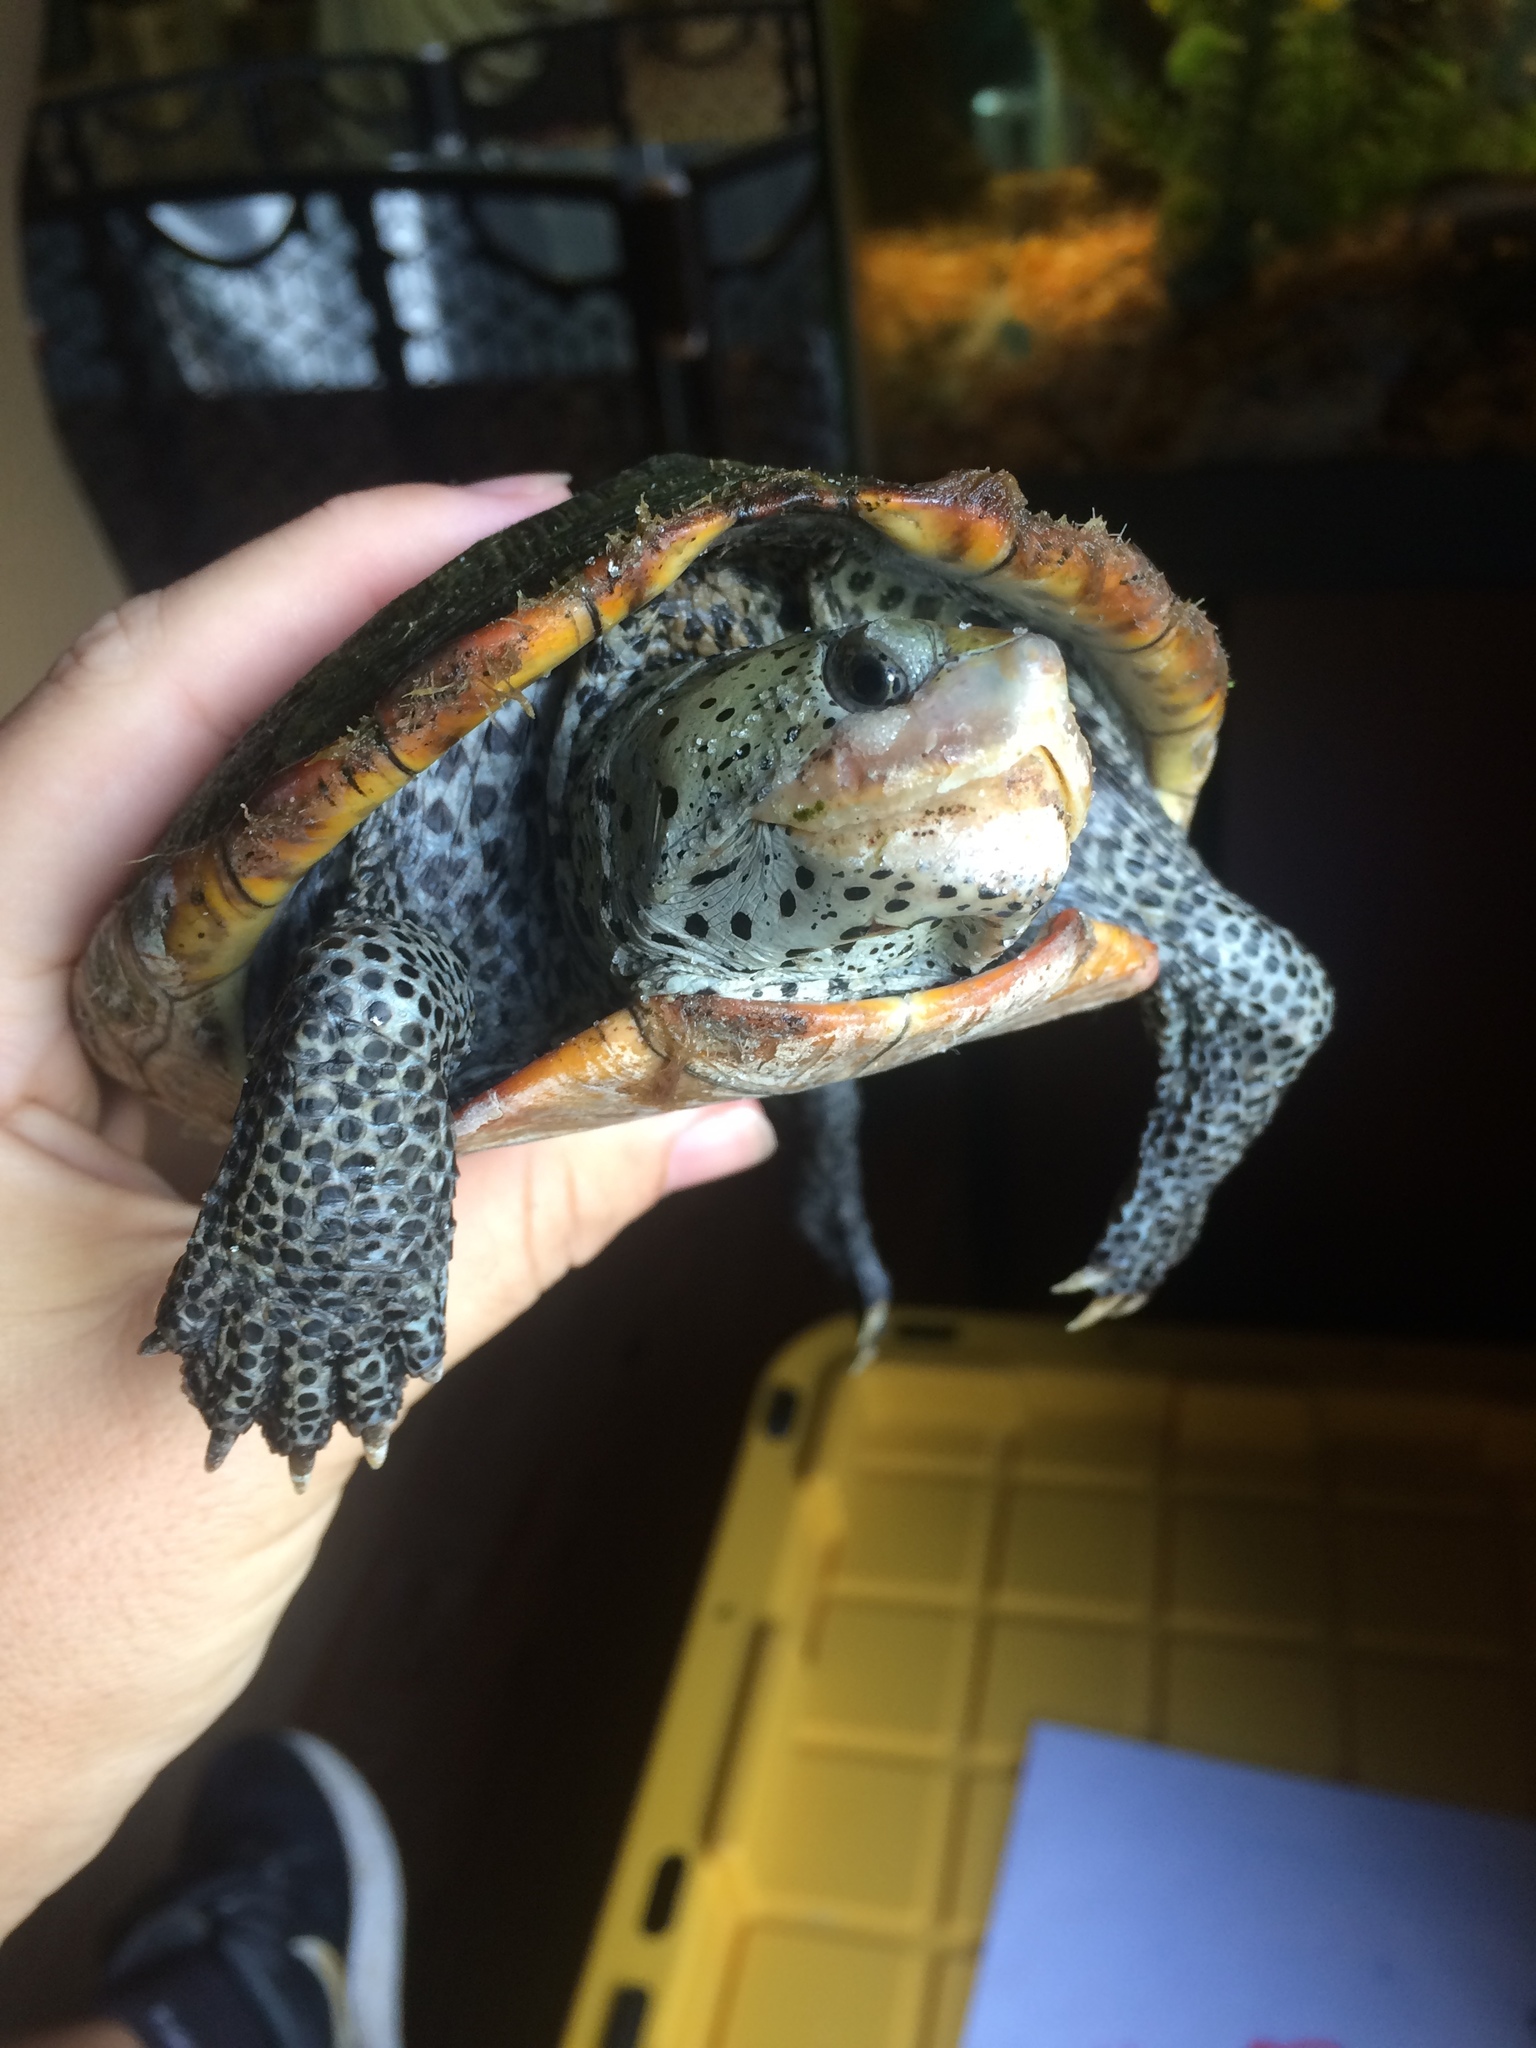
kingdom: Animalia
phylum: Chordata
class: Testudines
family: Emydidae
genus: Malaclemys
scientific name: Malaclemys terrapin
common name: Diamondback terrapin
